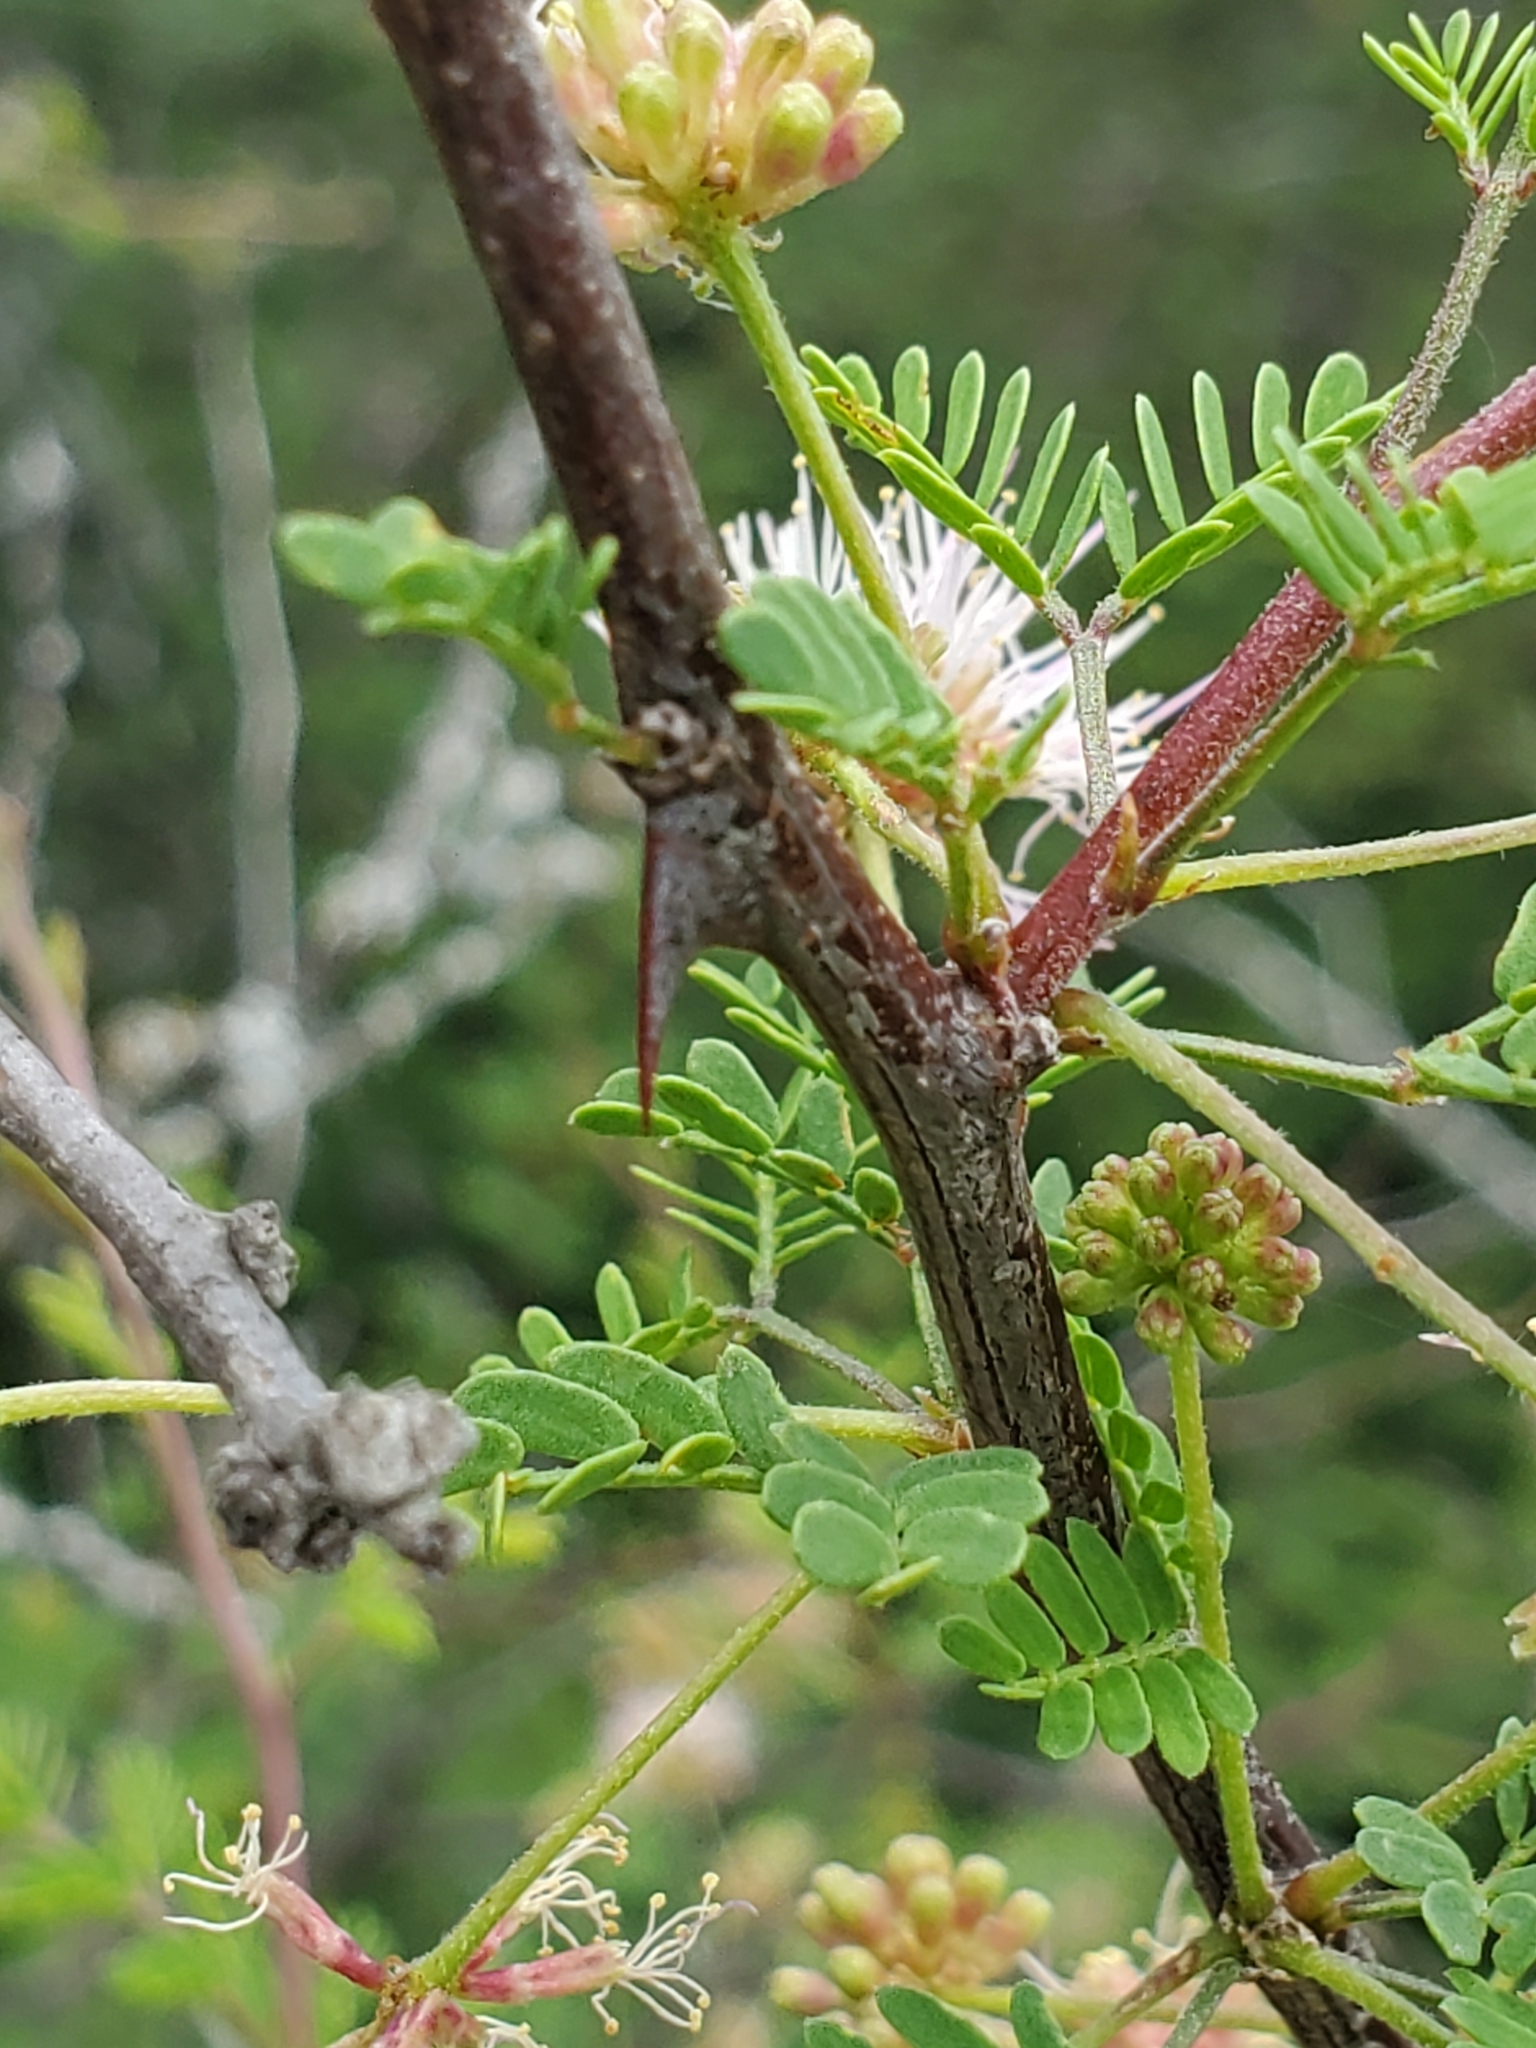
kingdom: Plantae
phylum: Tracheophyta
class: Magnoliopsida
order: Fabales
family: Fabaceae
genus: Mimosa
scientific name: Mimosa texana
